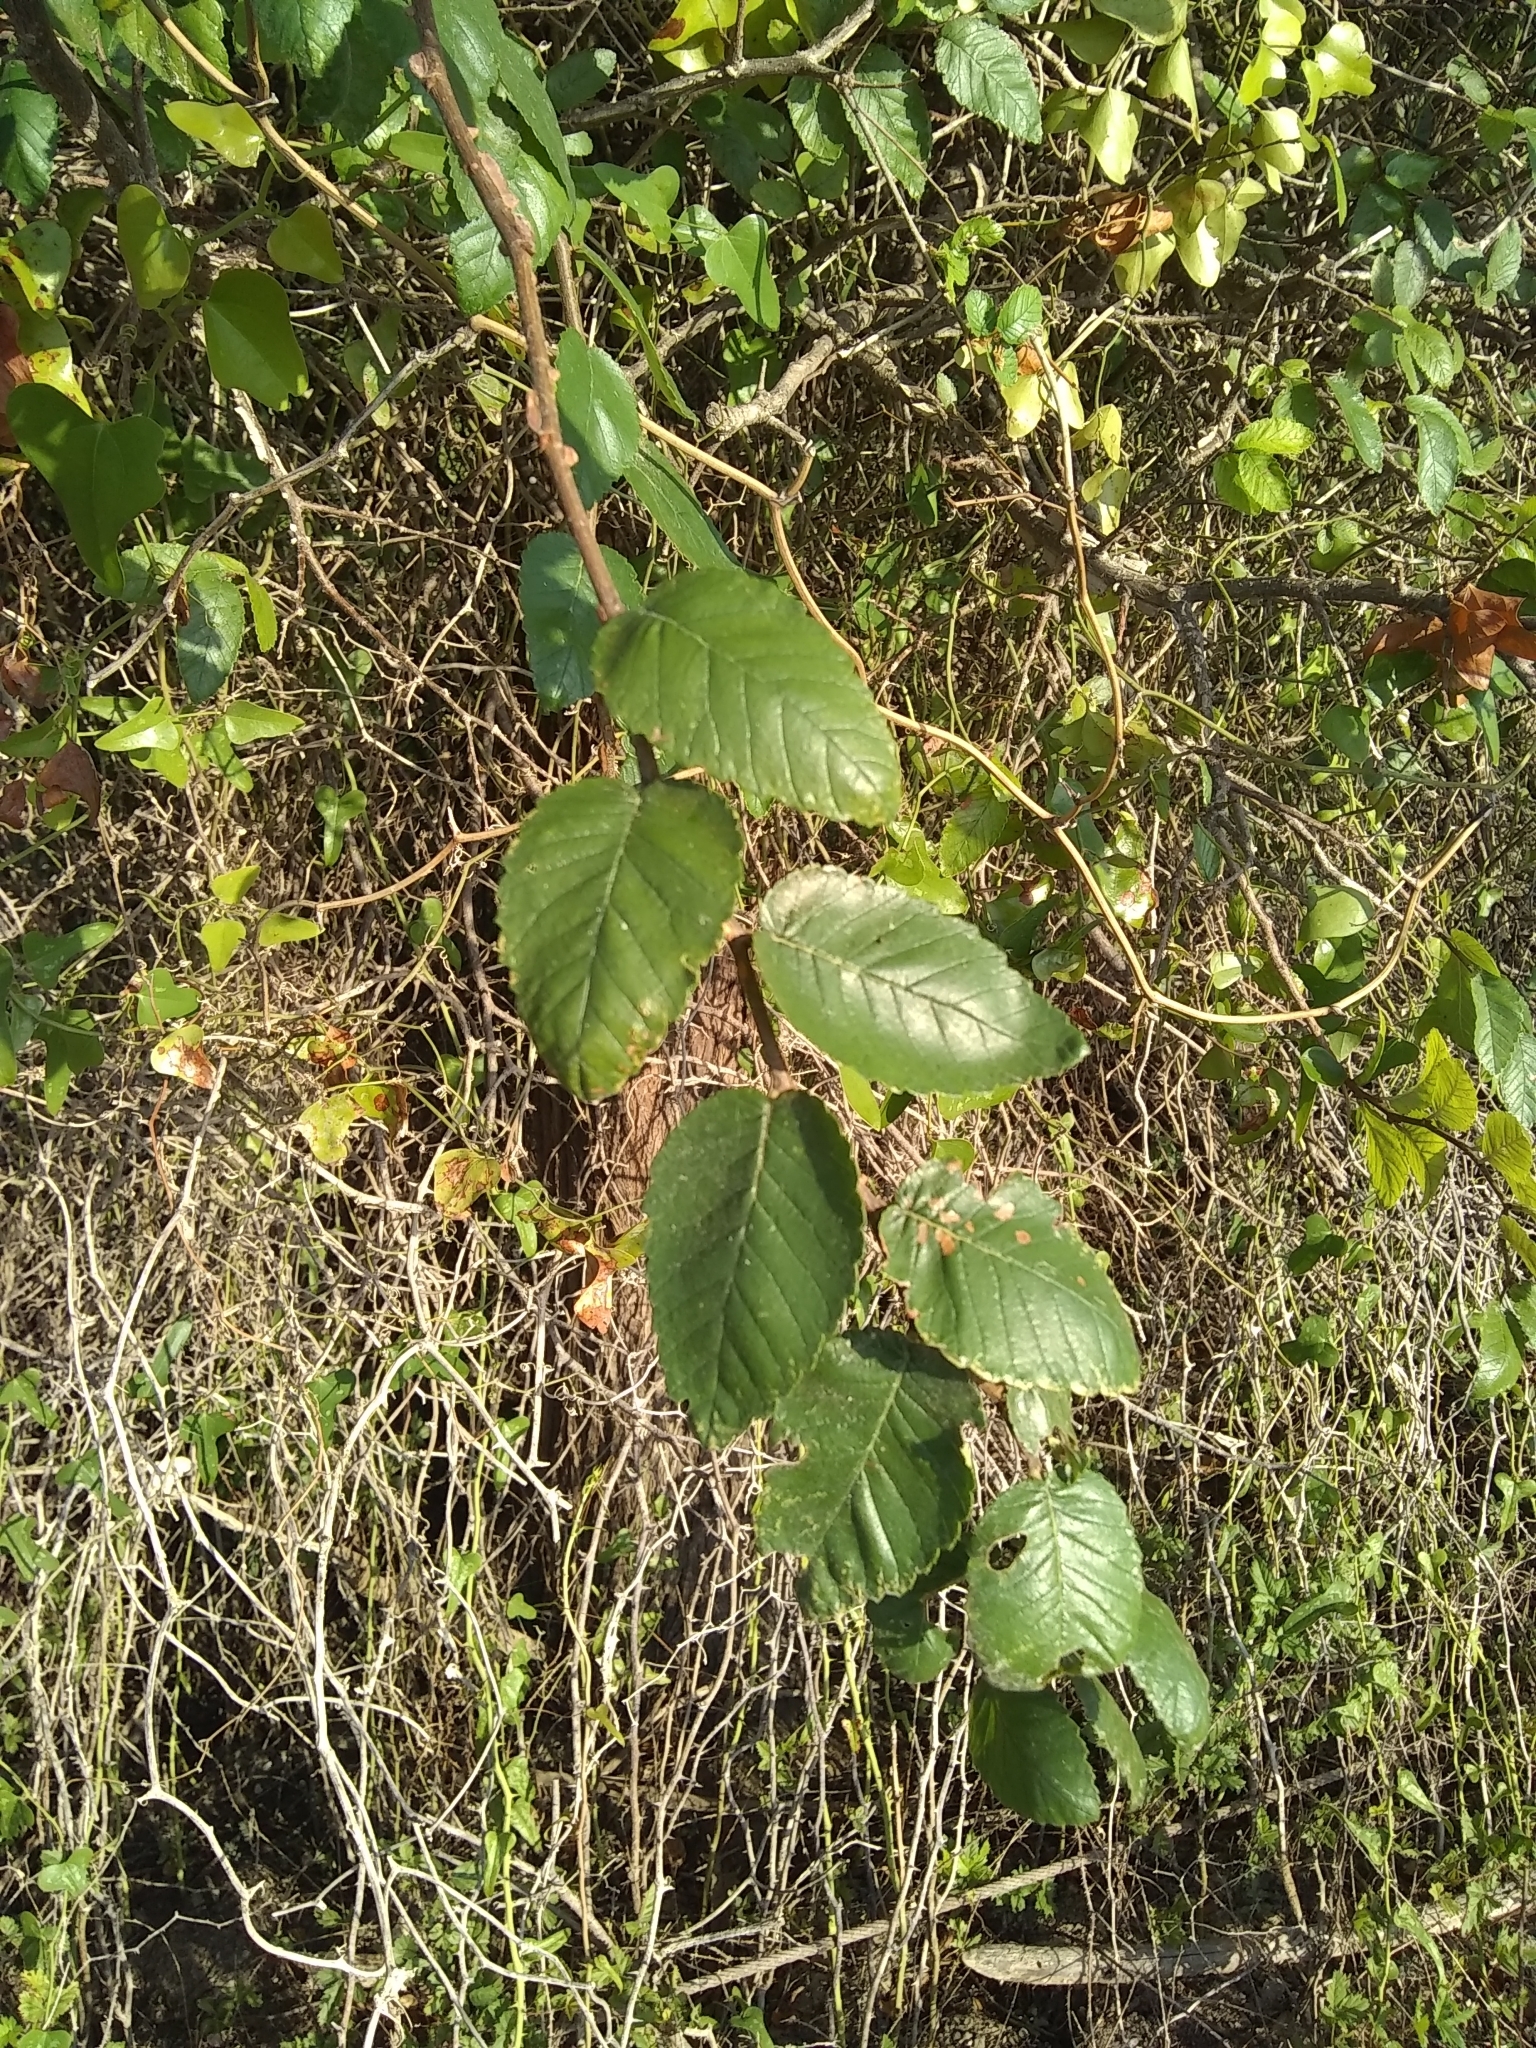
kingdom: Plantae
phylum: Tracheophyta
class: Magnoliopsida
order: Rosales
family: Ulmaceae
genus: Ulmus
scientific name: Ulmus crassifolia
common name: Basket elm
